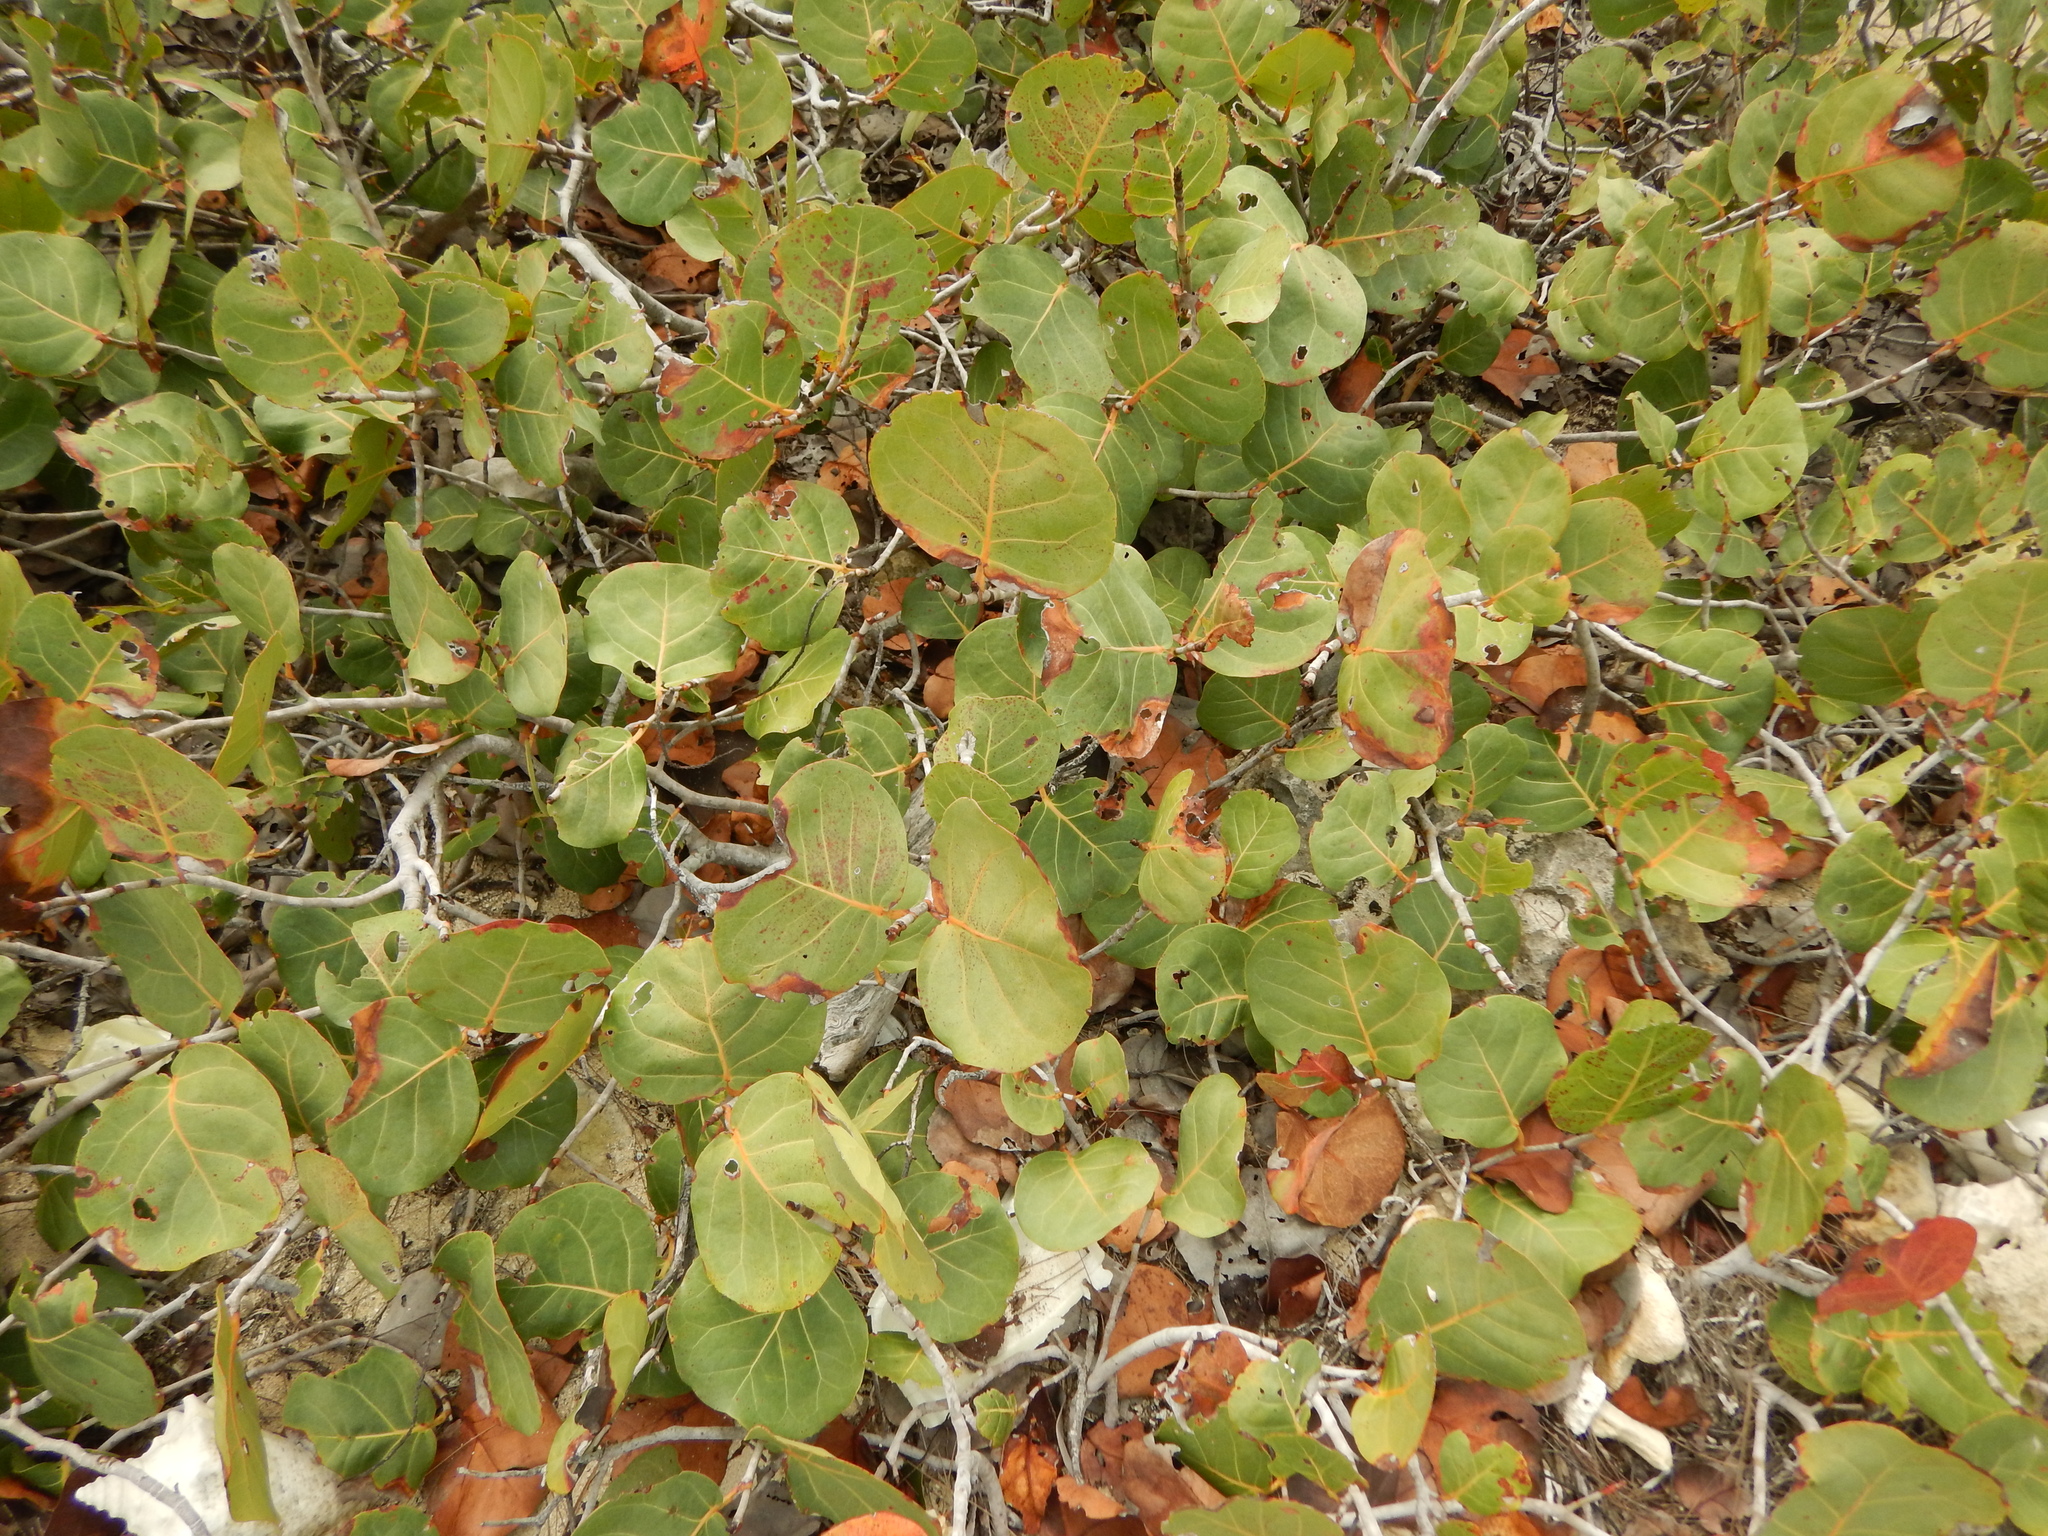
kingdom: Plantae
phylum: Tracheophyta
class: Magnoliopsida
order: Caryophyllales
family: Polygonaceae
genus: Coccoloba
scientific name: Coccoloba uvifera
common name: Seagrape
